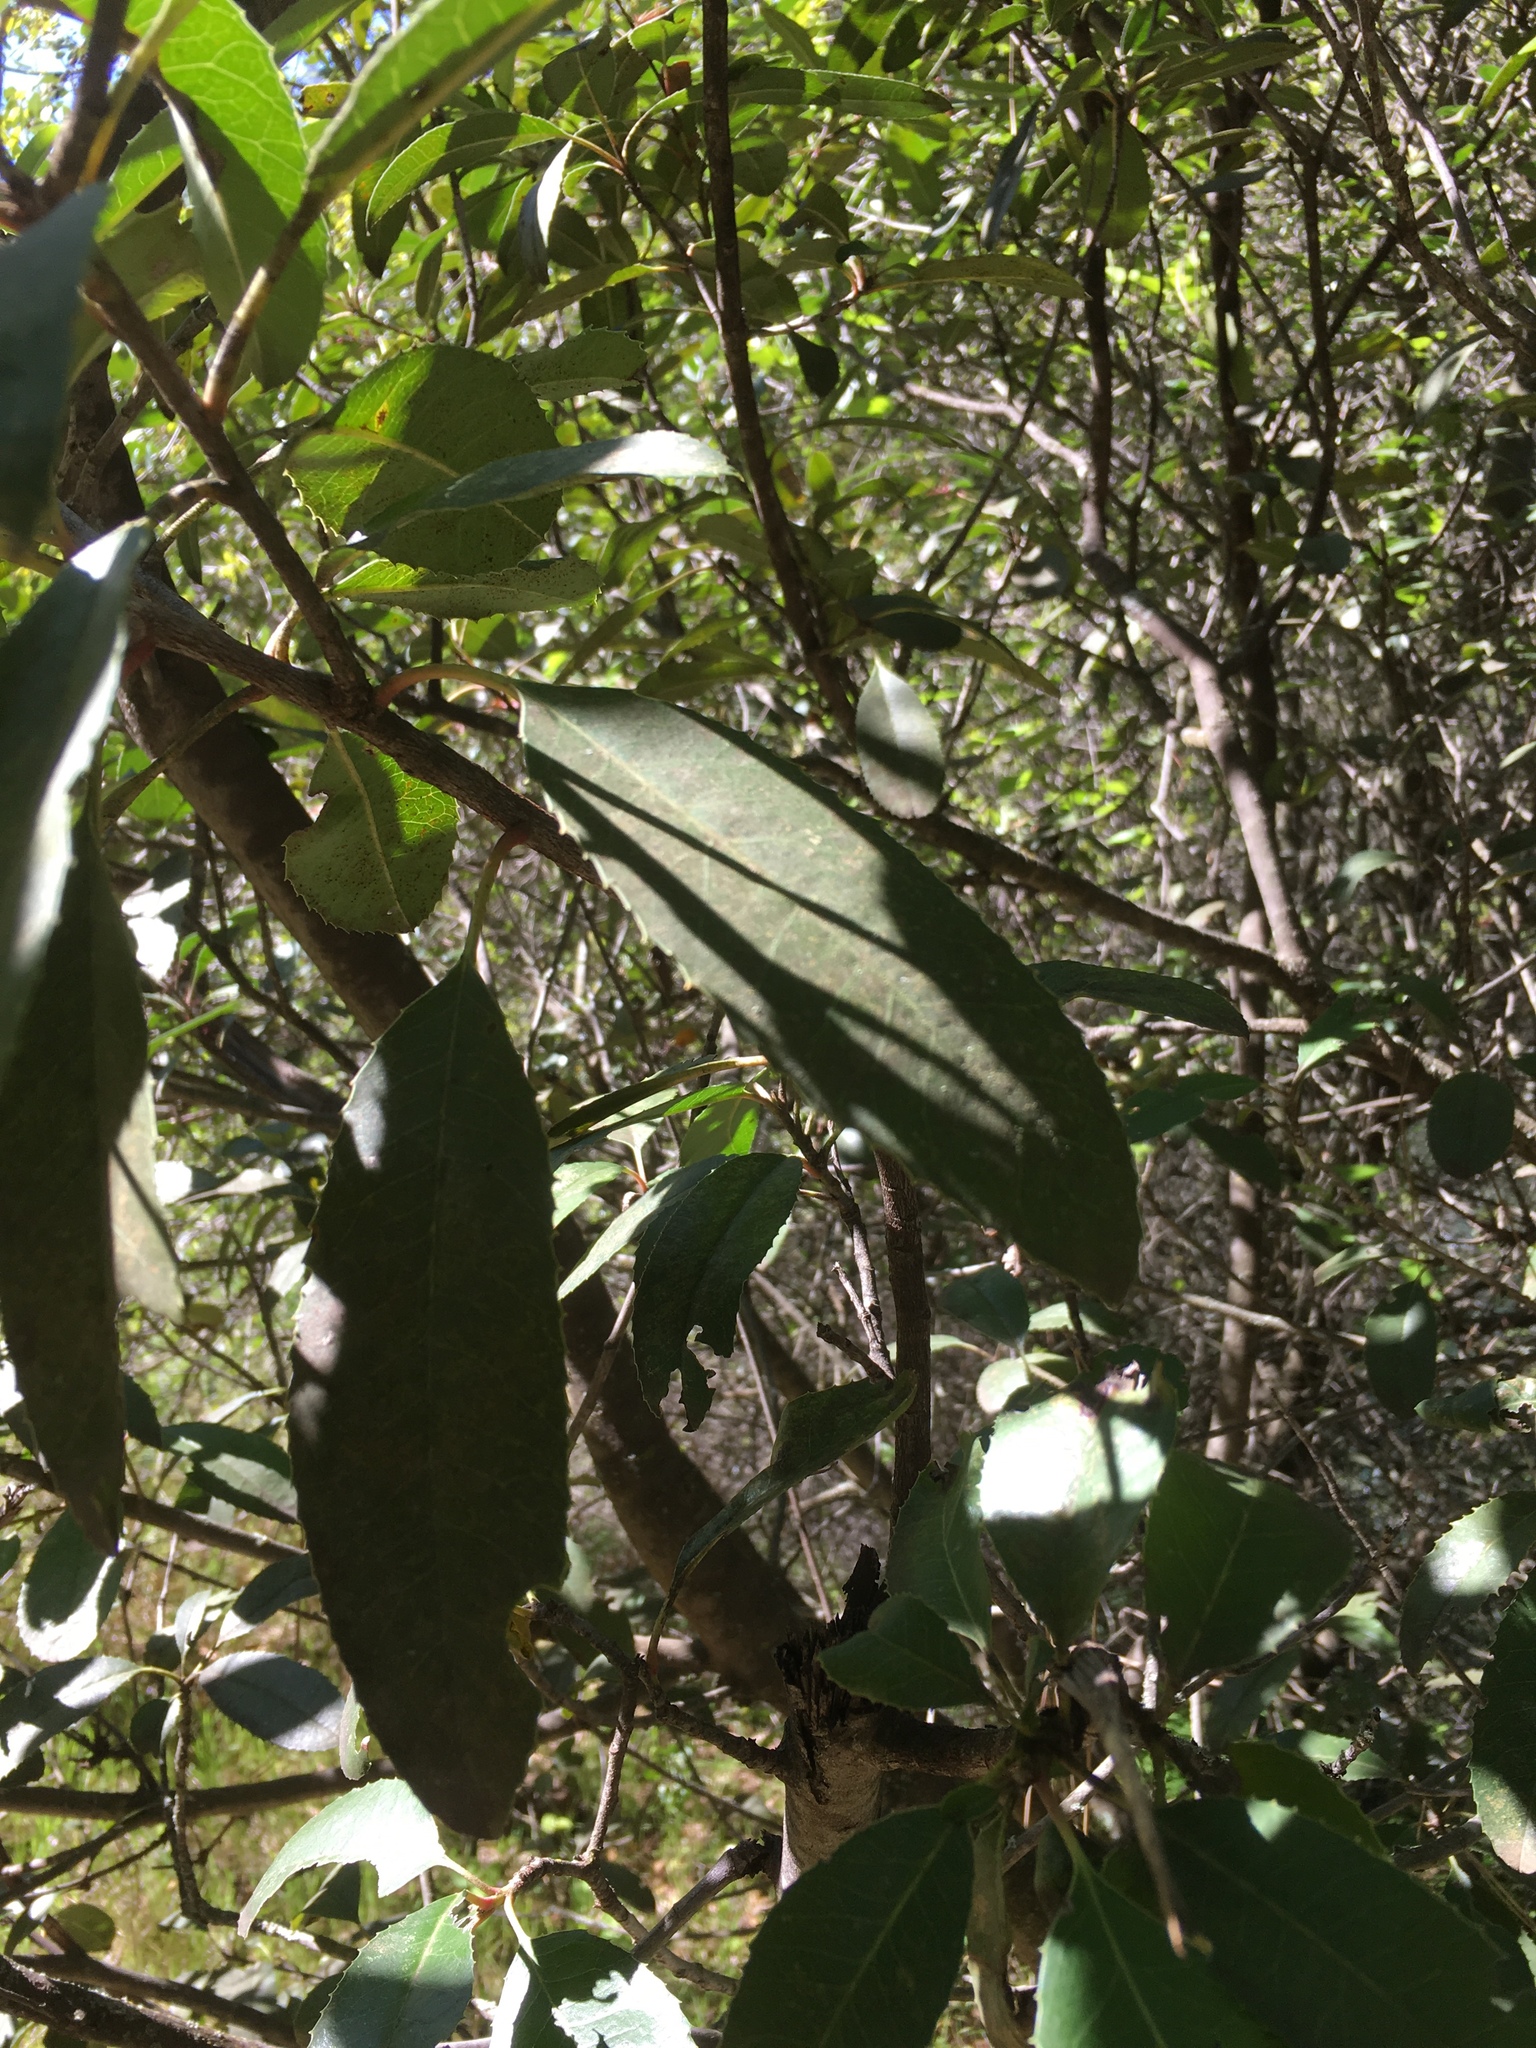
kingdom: Plantae
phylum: Tracheophyta
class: Magnoliopsida
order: Rosales
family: Rosaceae
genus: Heteromeles
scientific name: Heteromeles arbutifolia
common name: California-holly
